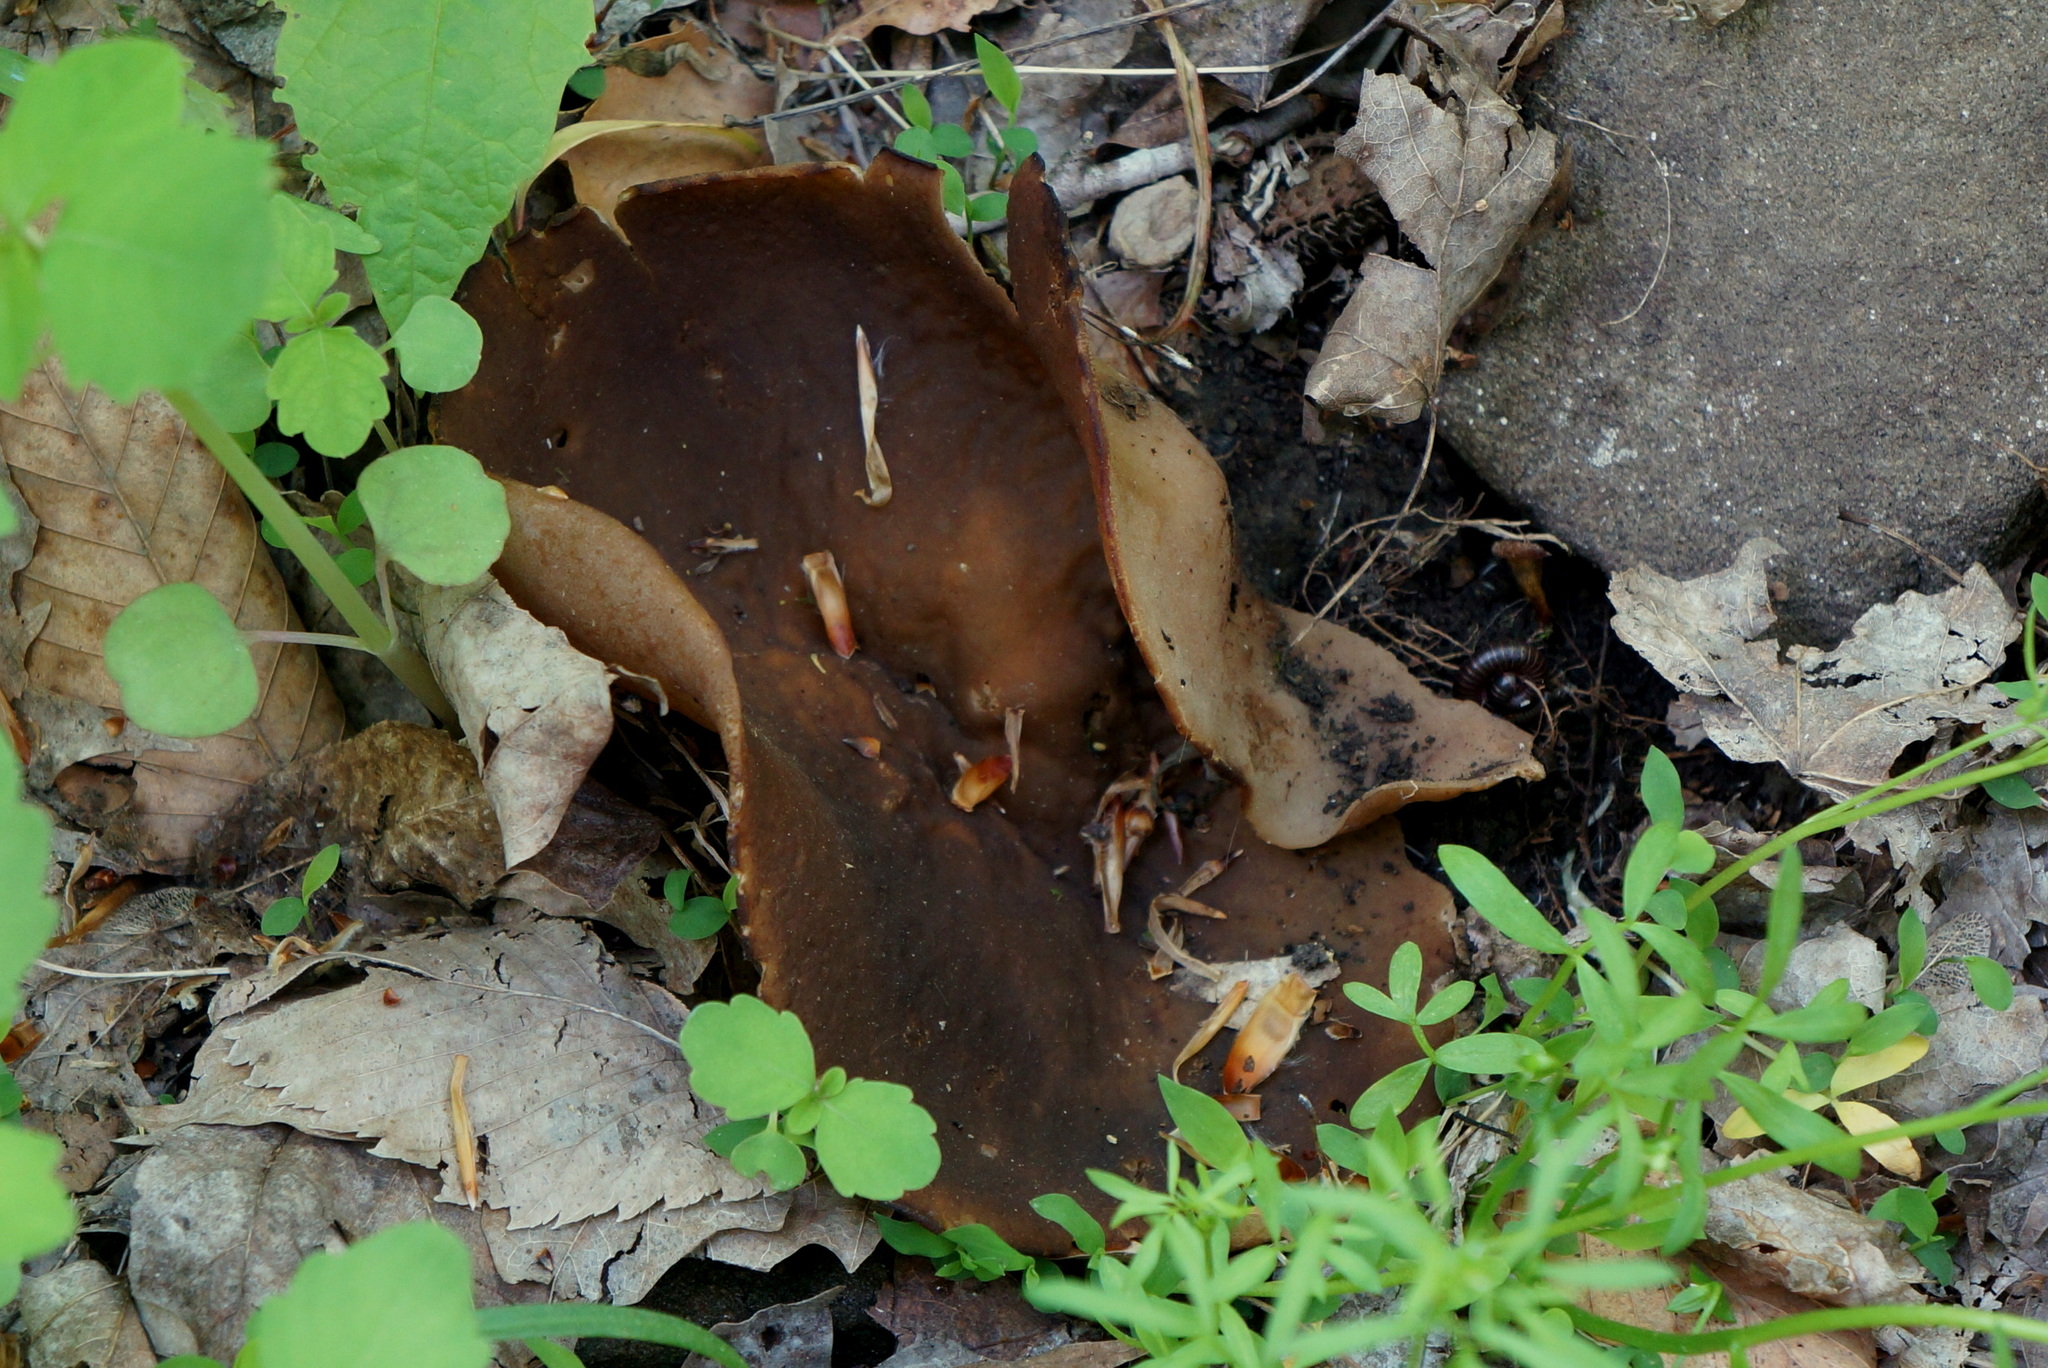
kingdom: Fungi
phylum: Ascomycota
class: Pezizomycetes
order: Pezizales
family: Morchellaceae
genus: Disciotis
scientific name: Disciotis venosa
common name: Bleach cup
